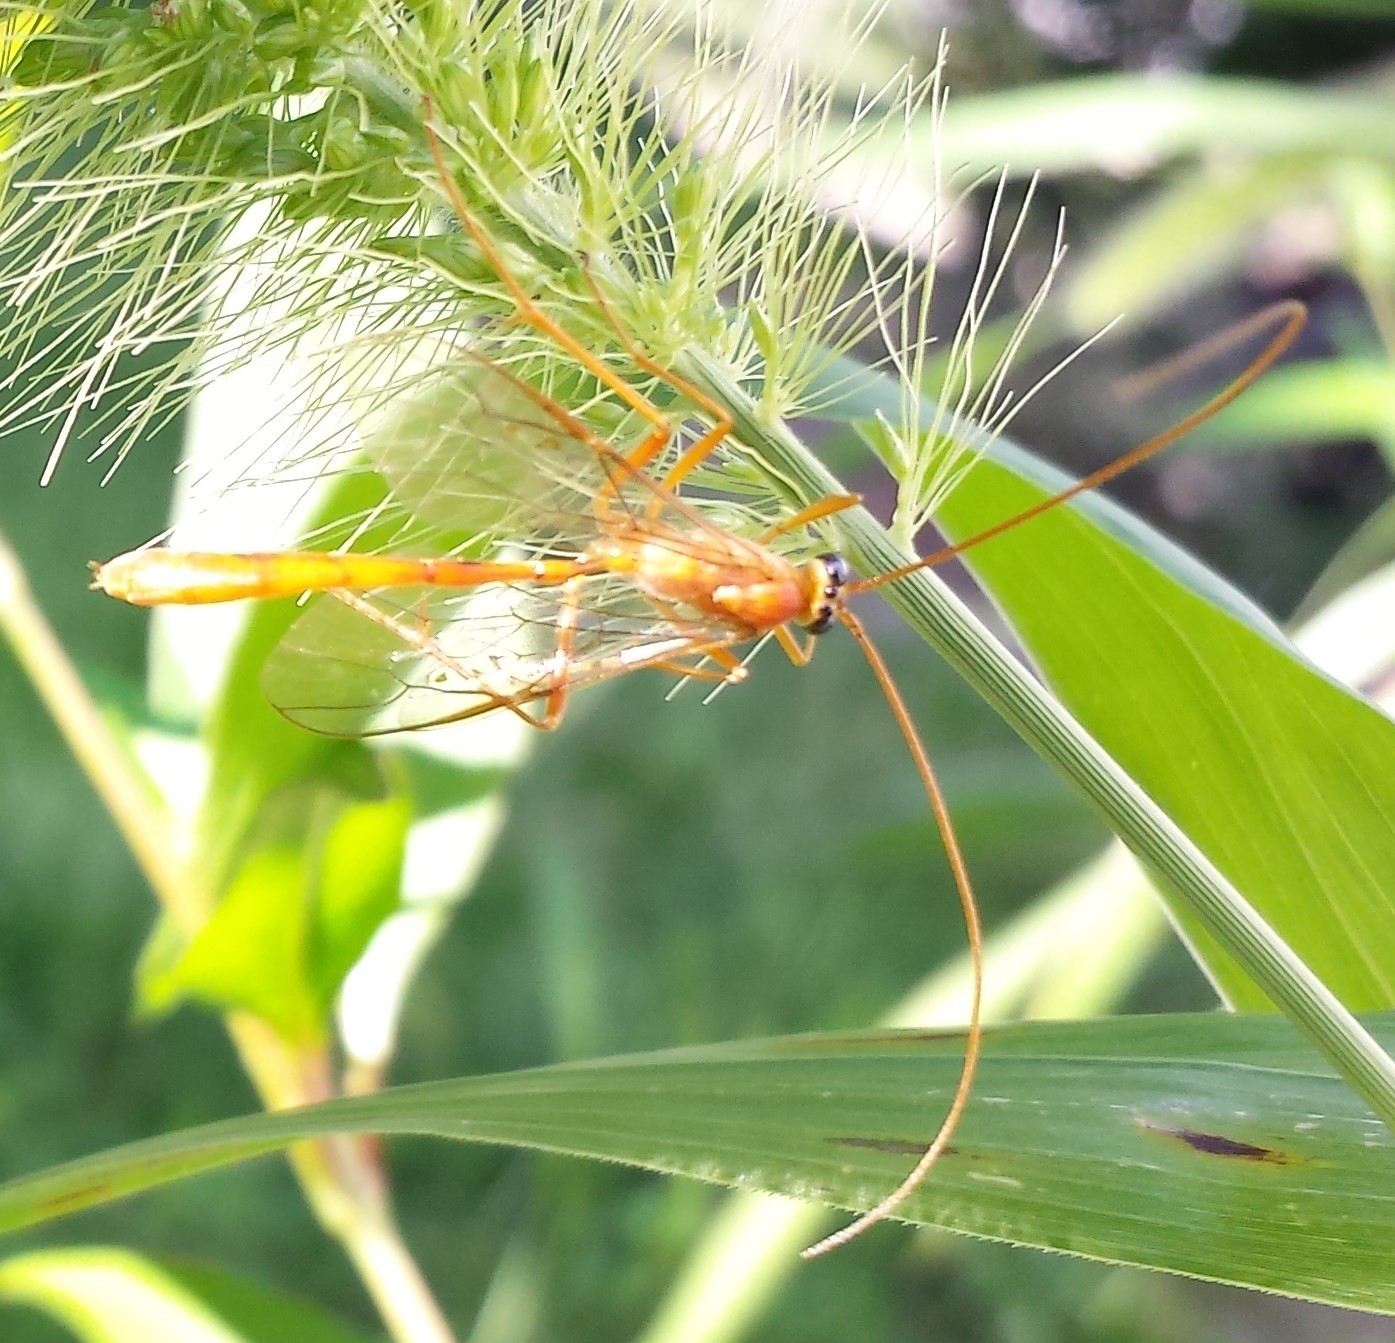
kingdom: Animalia
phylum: Arthropoda
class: Insecta
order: Hymenoptera
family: Ichneumonidae
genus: Enicospilus
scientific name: Enicospilus purgatus
